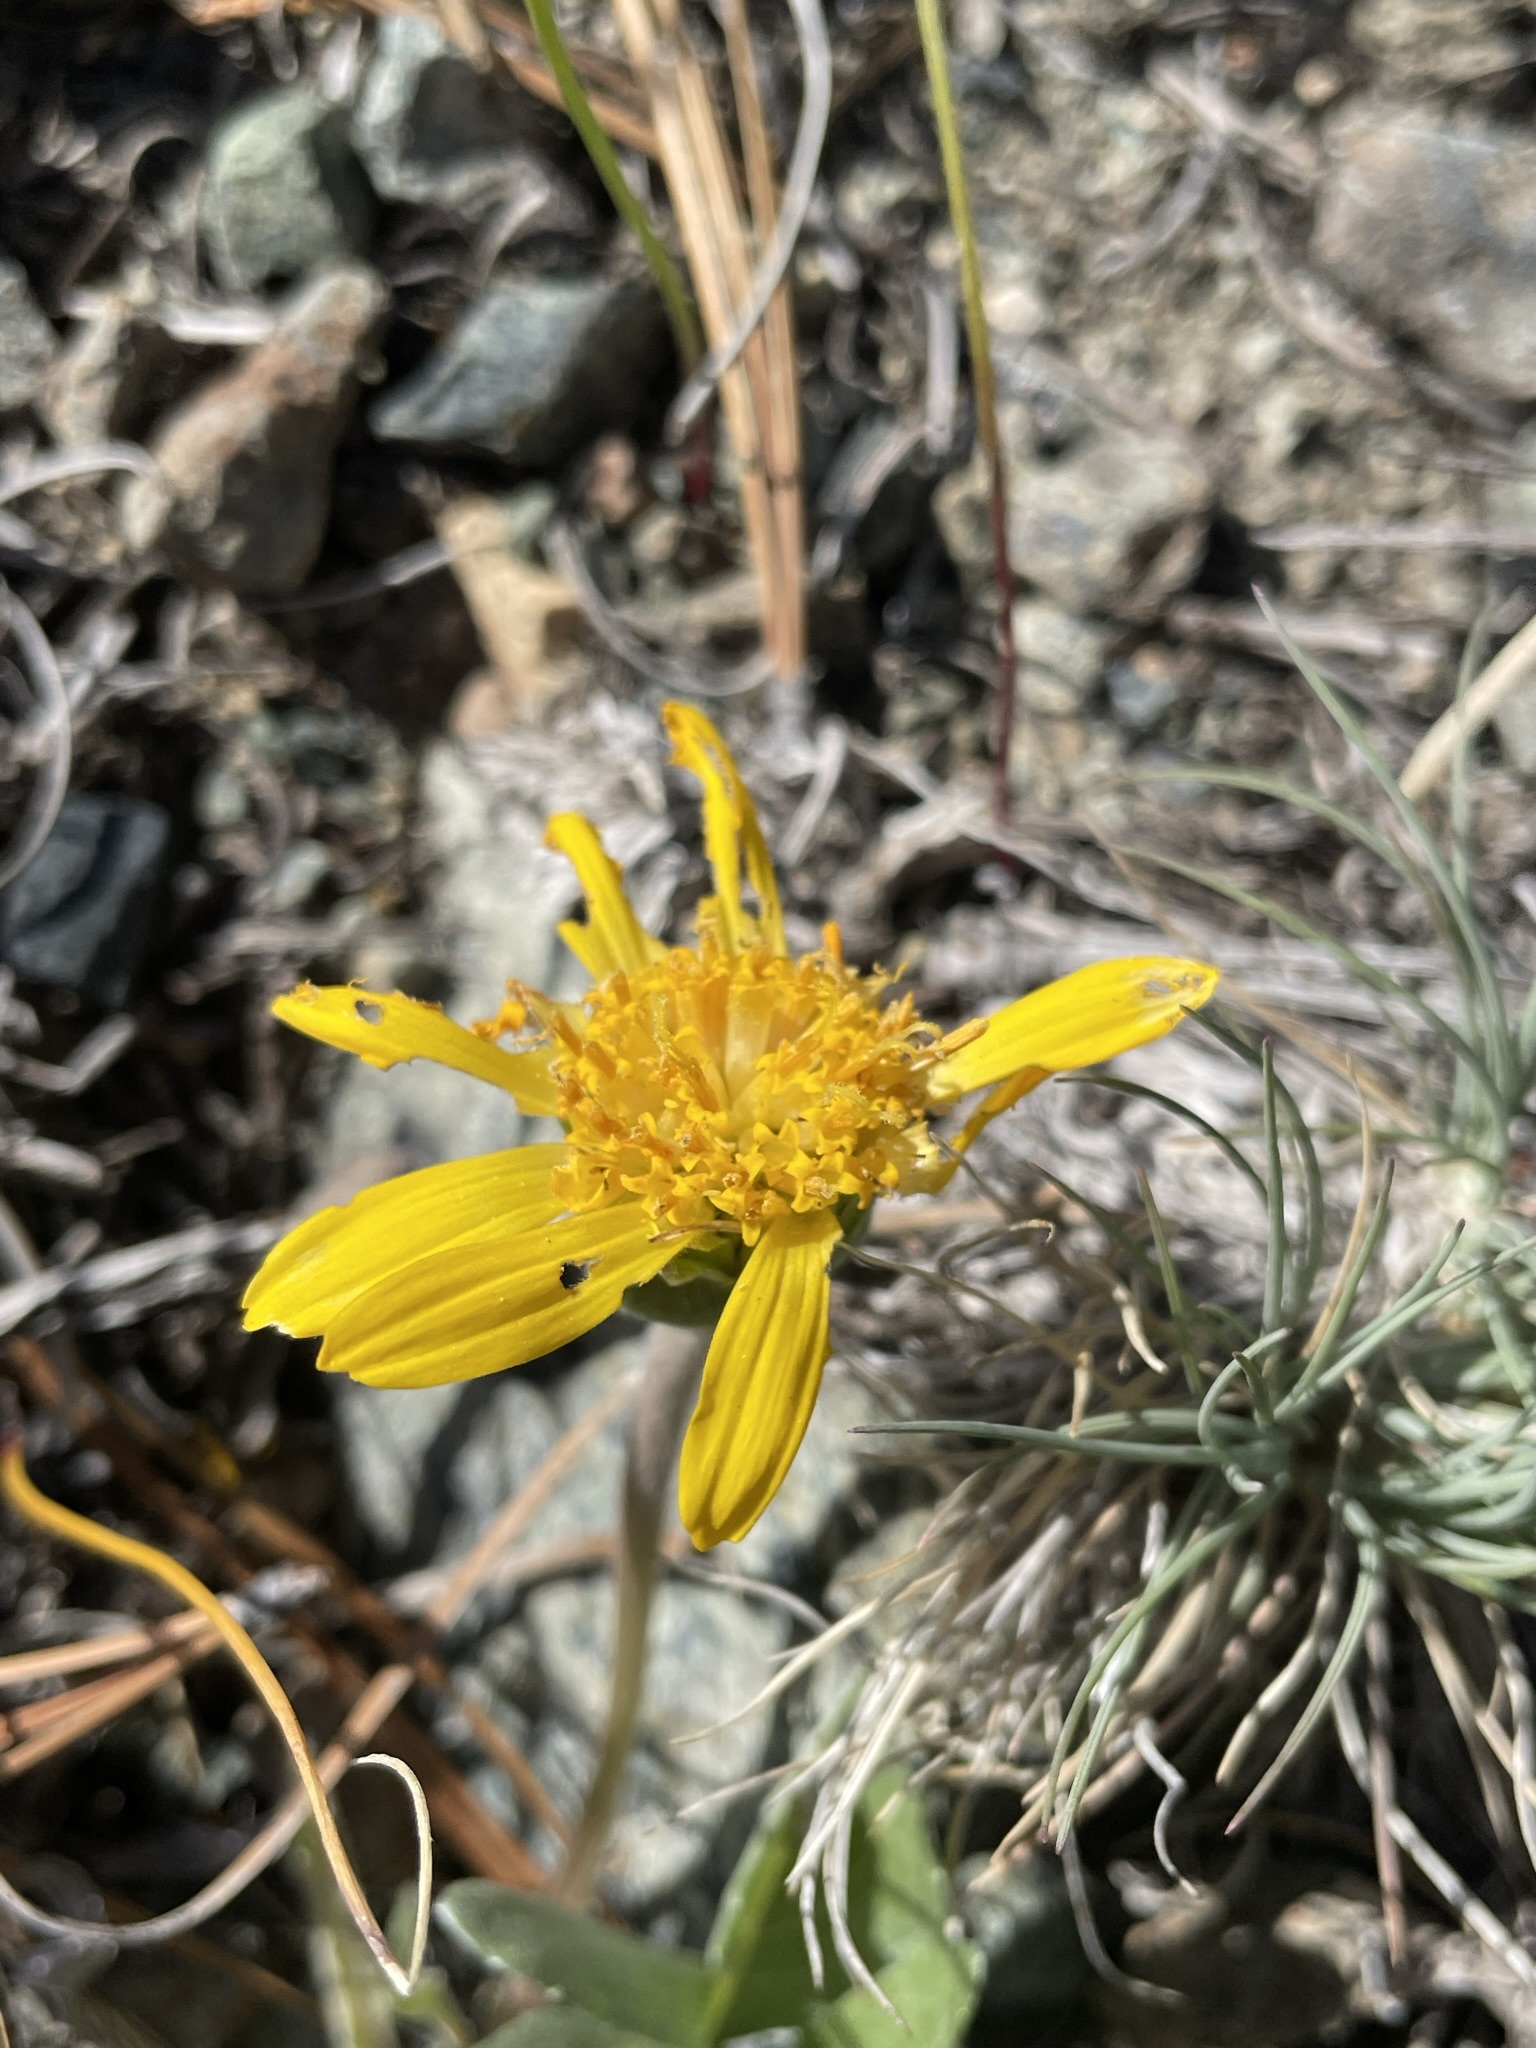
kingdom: Plantae
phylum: Tracheophyta
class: Magnoliopsida
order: Asterales
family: Asteraceae
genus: Balsamorhiza
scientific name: Balsamorhiza sericea
